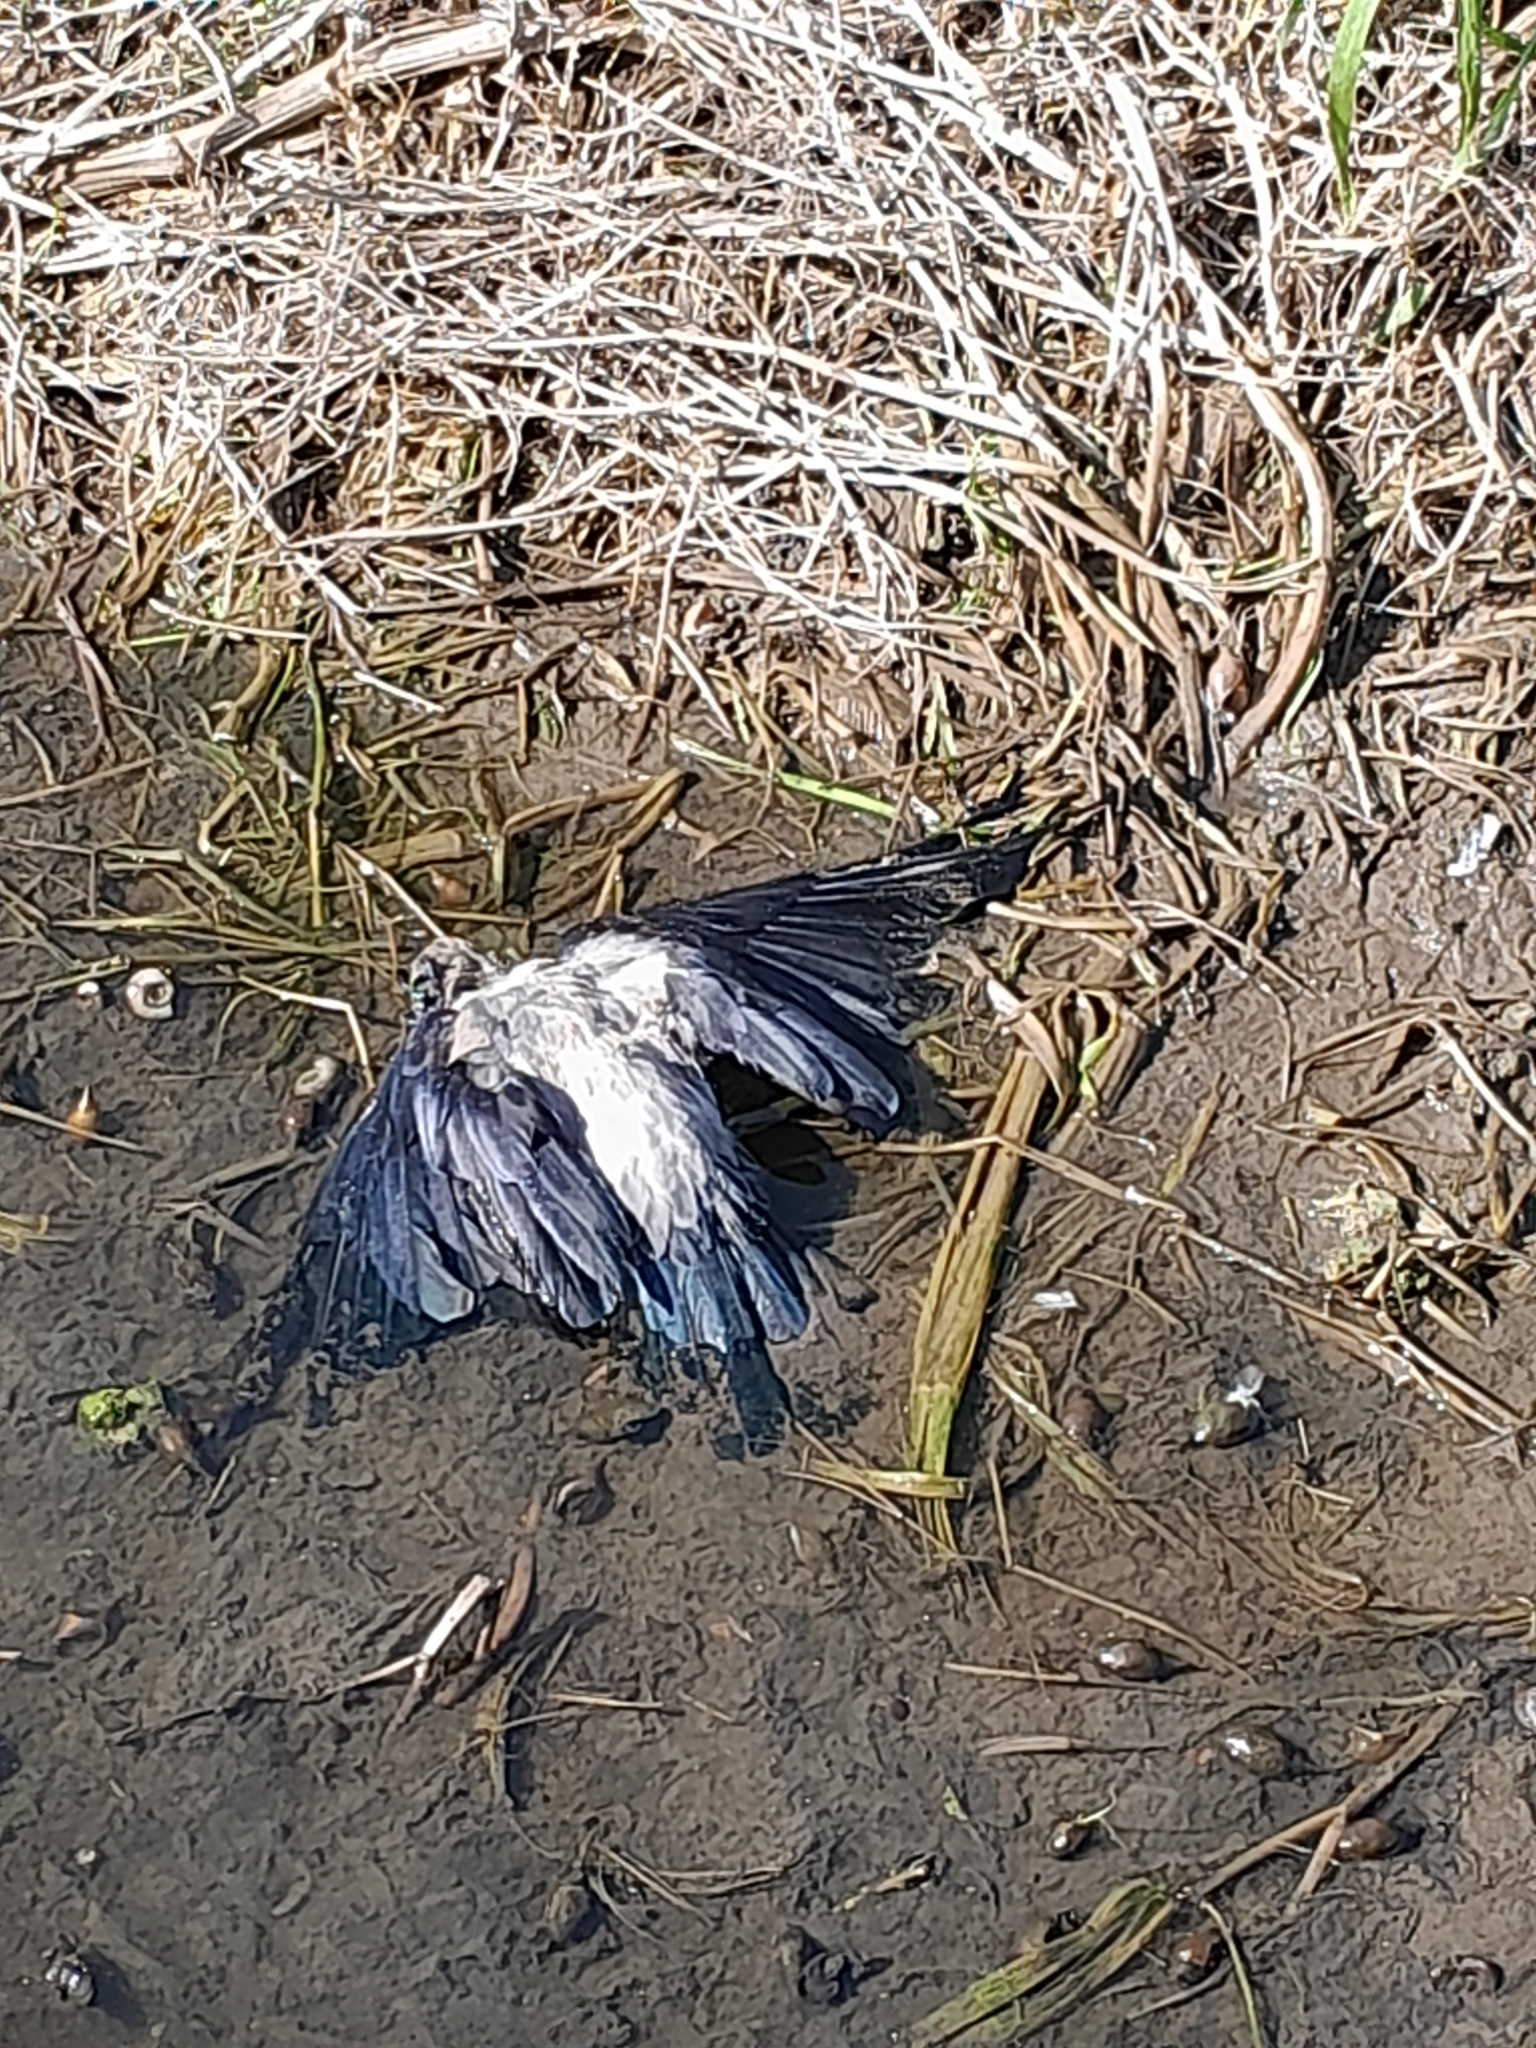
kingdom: Animalia
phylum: Chordata
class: Aves
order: Passeriformes
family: Corvidae
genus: Corvus
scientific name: Corvus cornix
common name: Hooded crow
